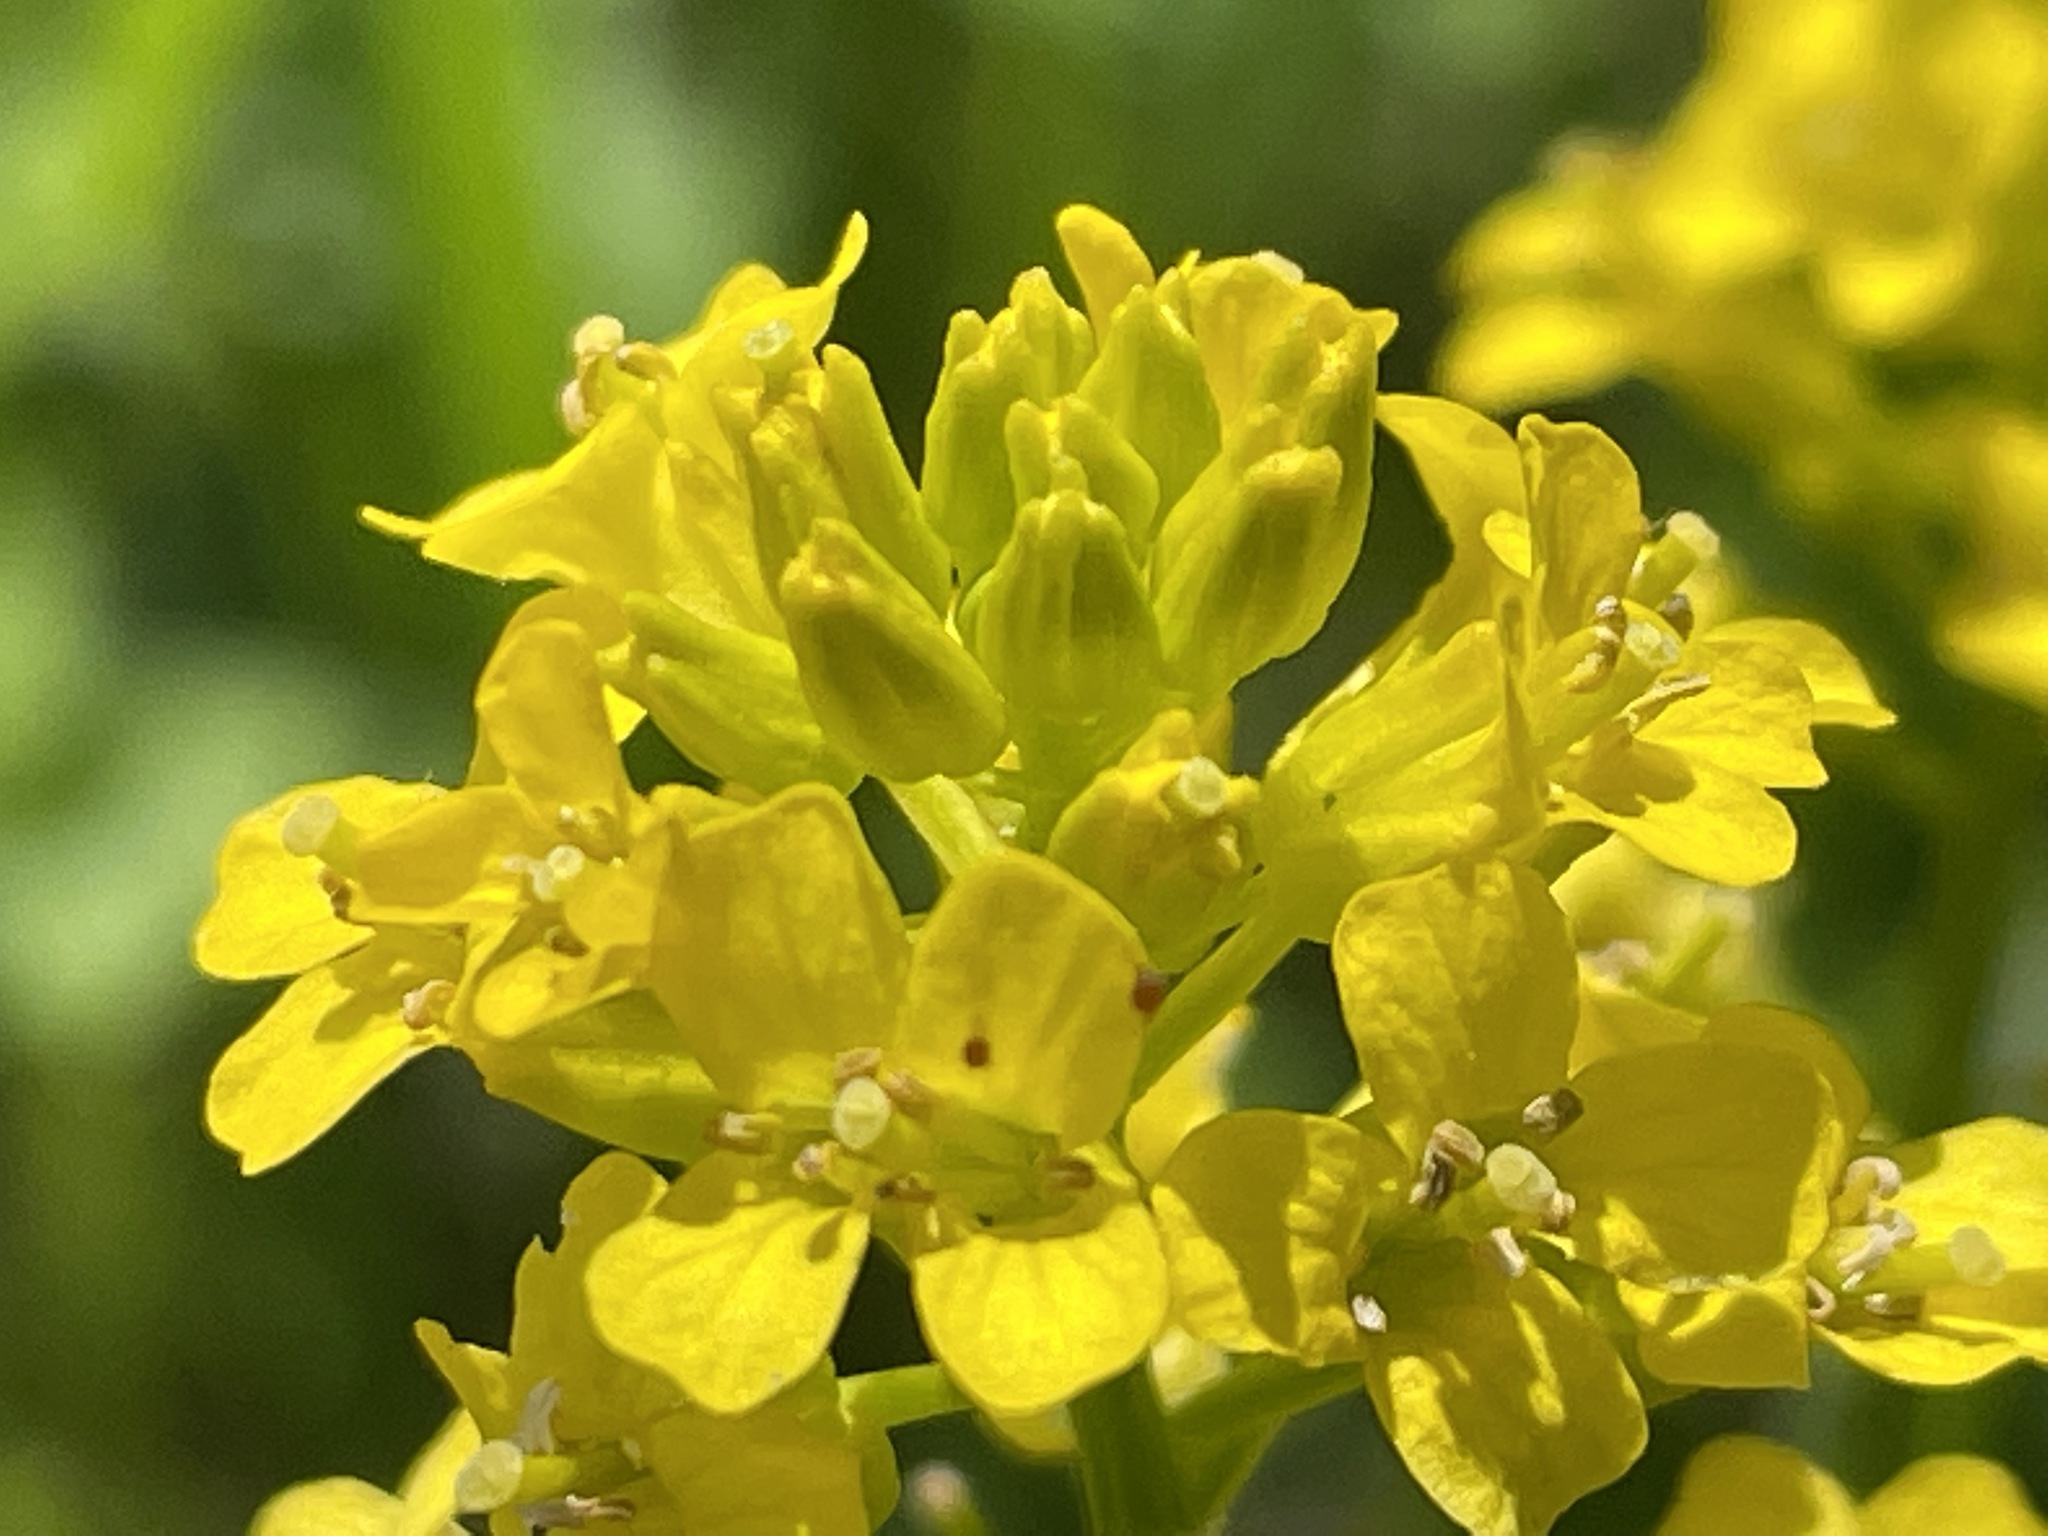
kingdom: Plantae
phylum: Tracheophyta
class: Magnoliopsida
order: Brassicales
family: Brassicaceae
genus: Barbarea
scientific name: Barbarea vulgaris
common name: Cressy-greens
